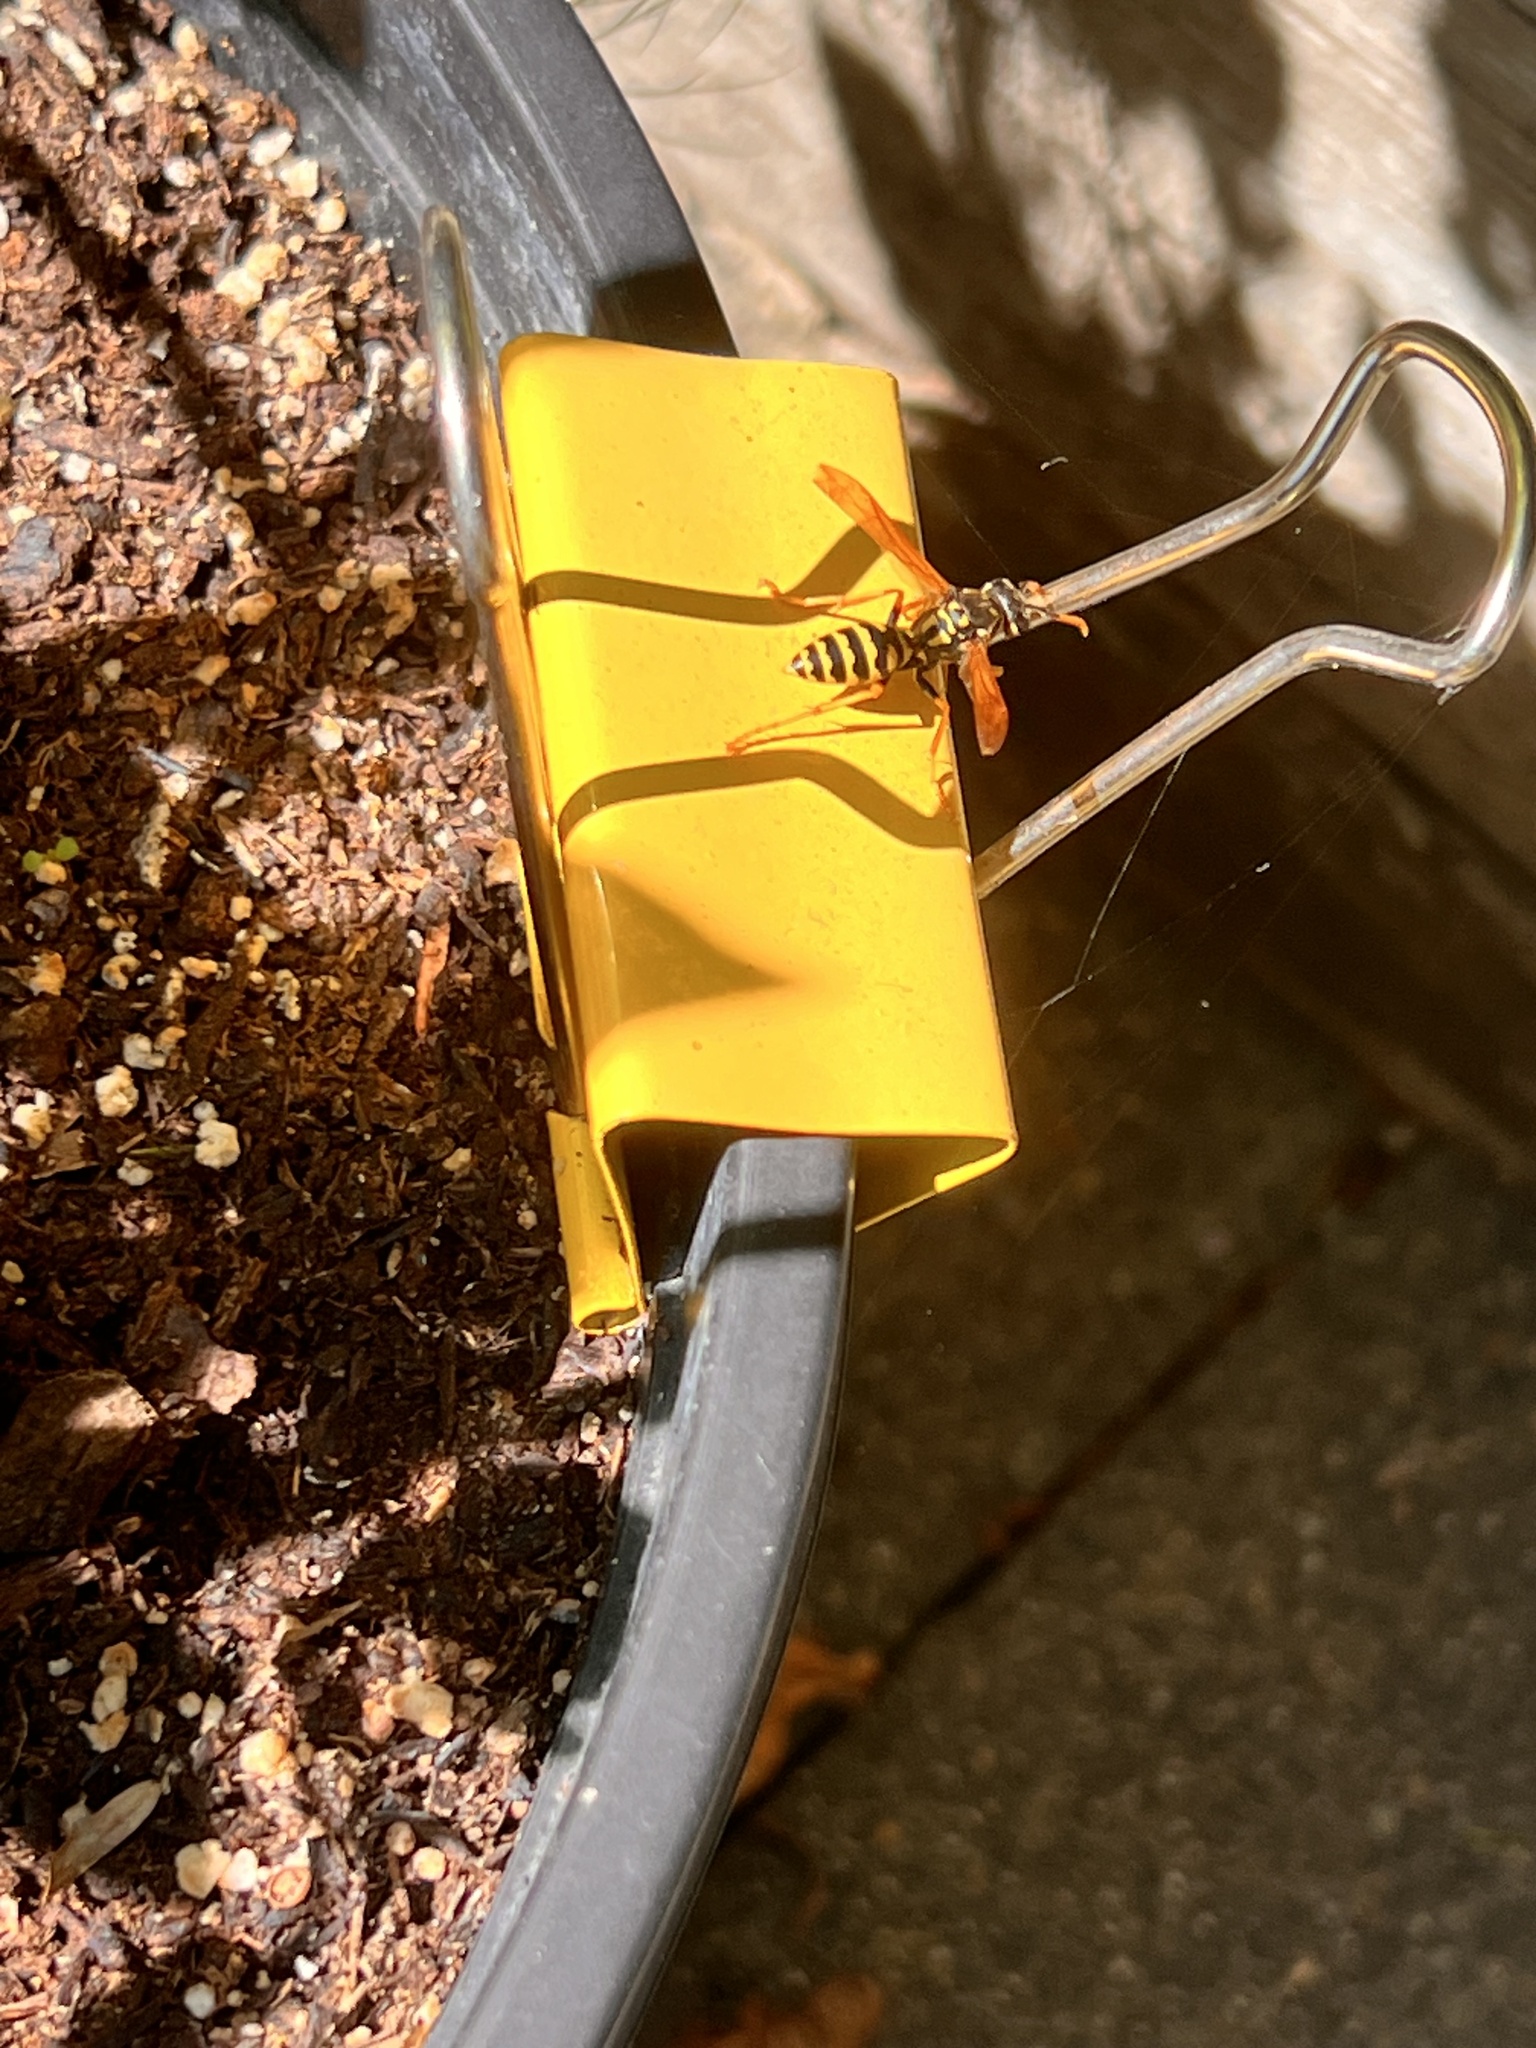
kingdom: Animalia
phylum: Arthropoda
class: Insecta
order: Hymenoptera
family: Eumenidae
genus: Polistes
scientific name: Polistes dominula
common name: Paper wasp
